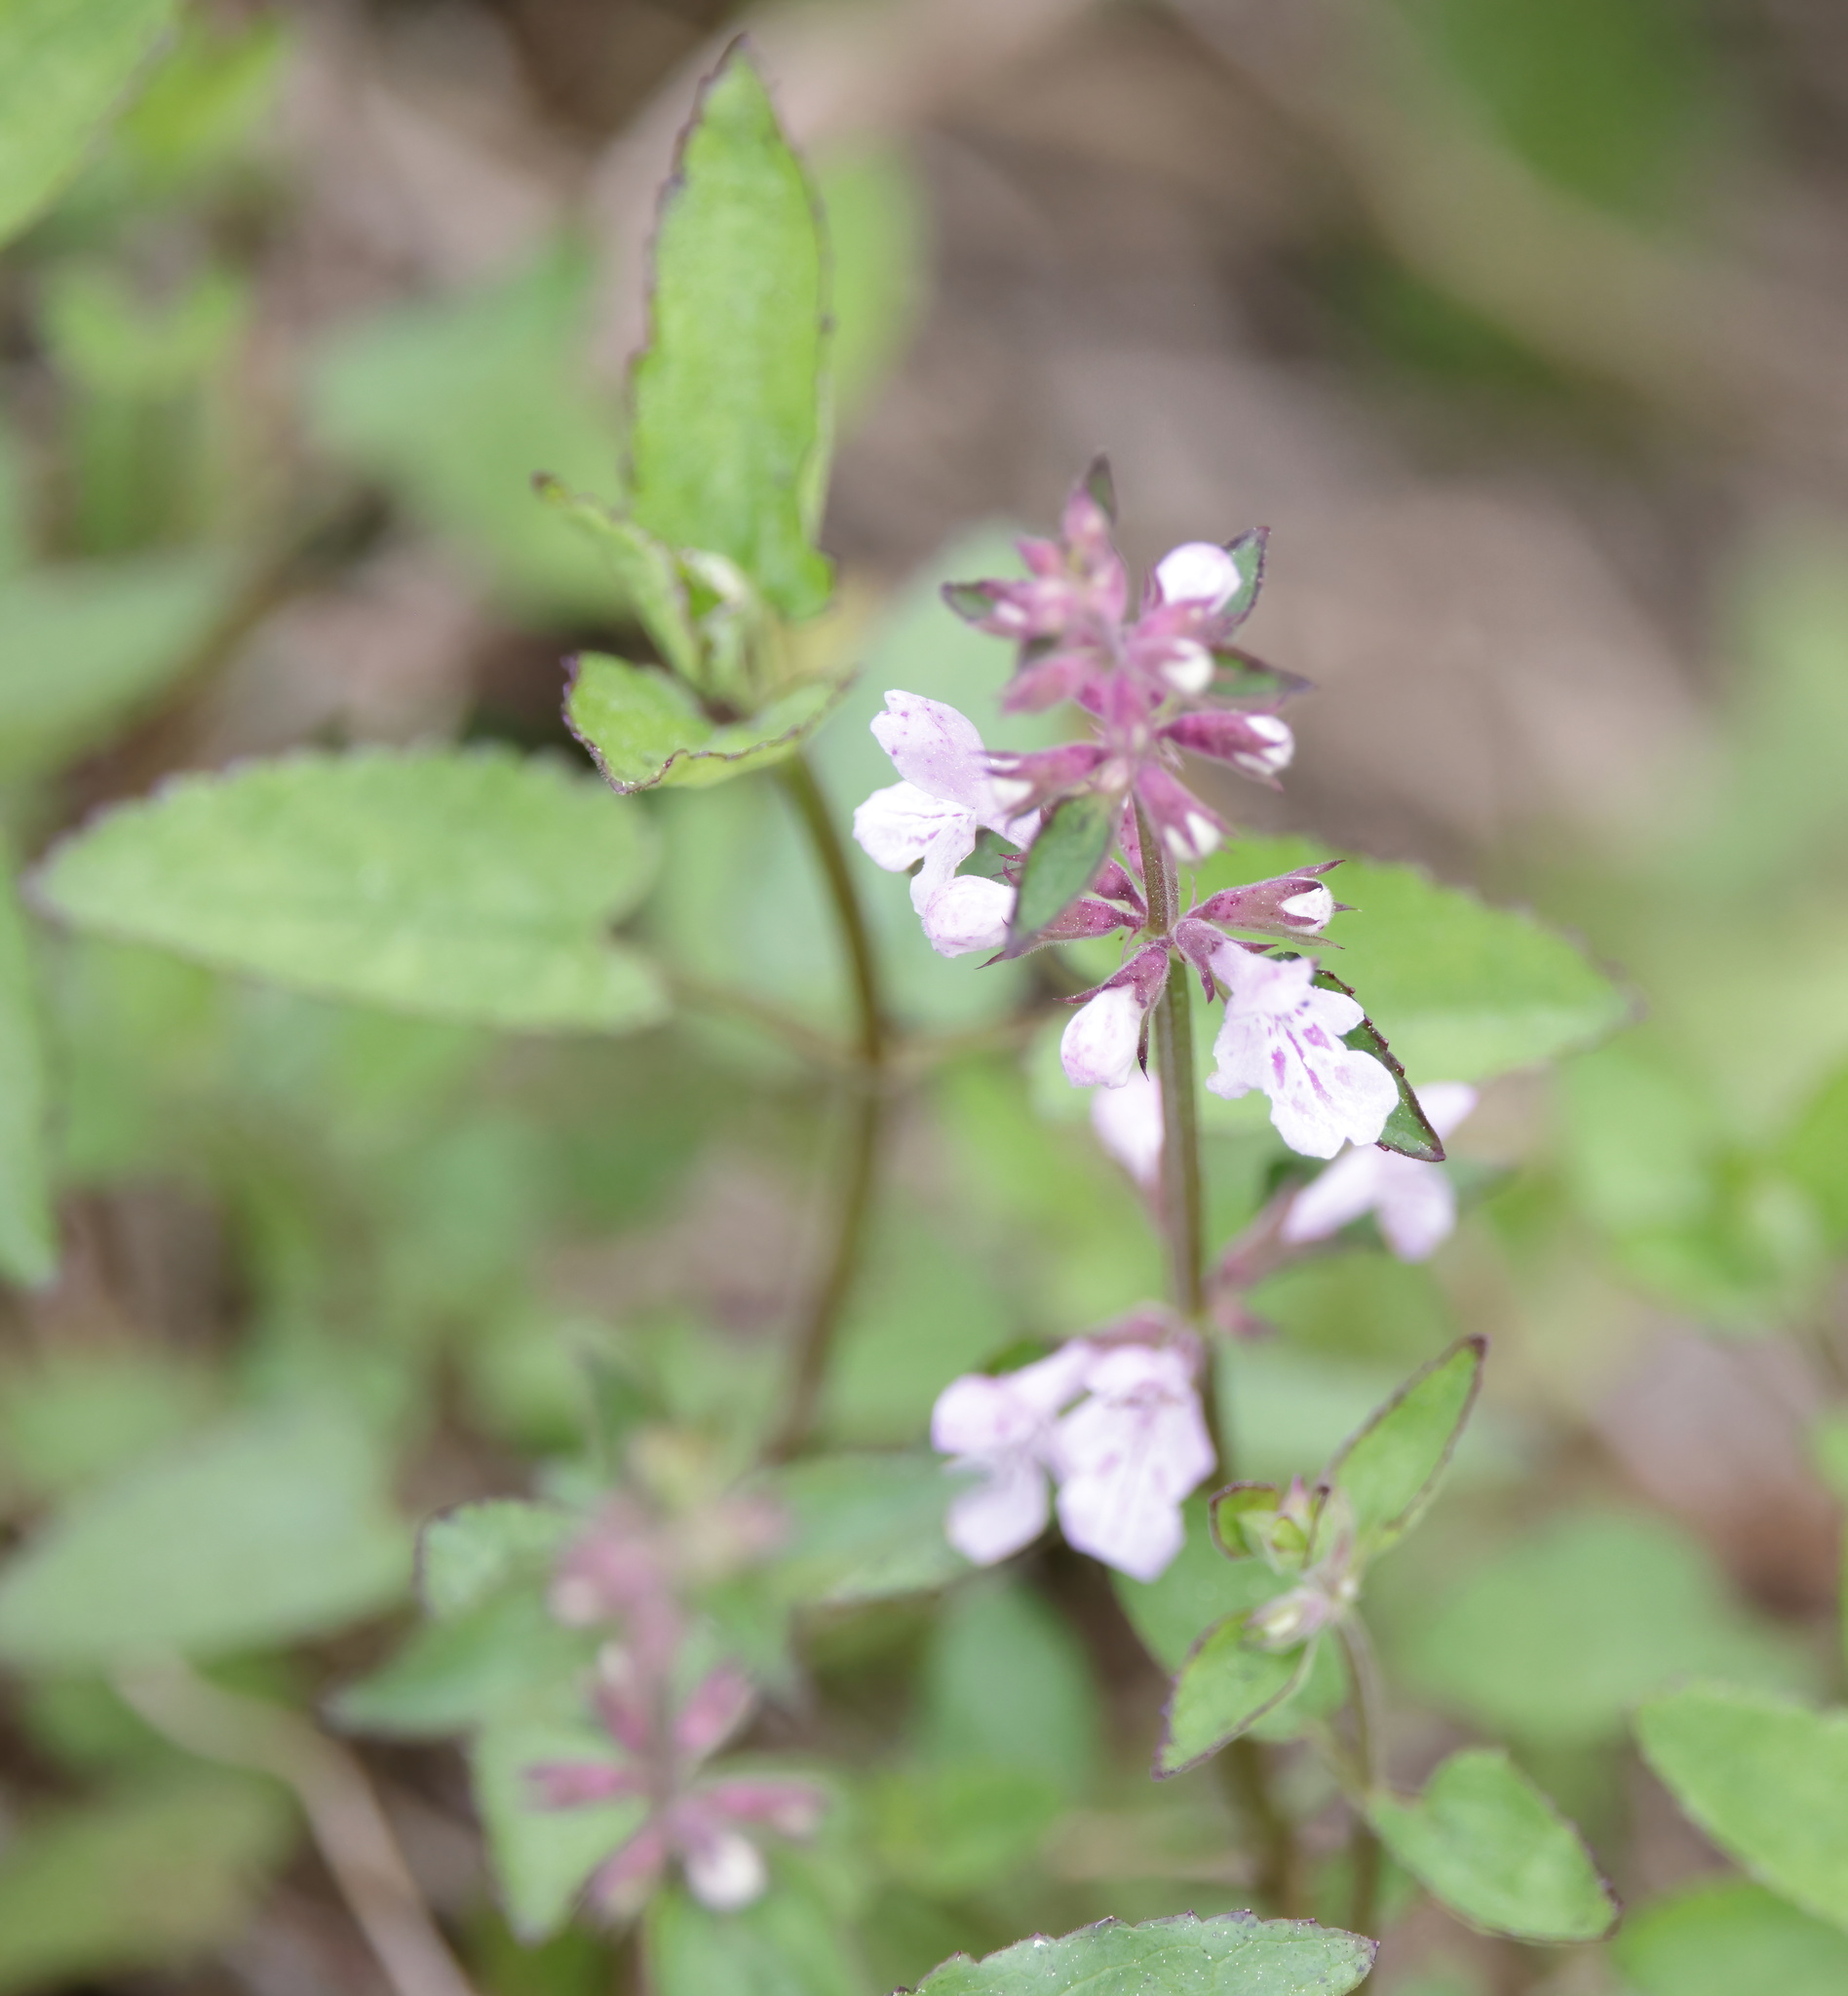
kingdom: Plantae
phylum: Tracheophyta
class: Magnoliopsida
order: Lamiales
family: Lamiaceae
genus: Stachys
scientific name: Stachys floridana
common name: Florida betony
